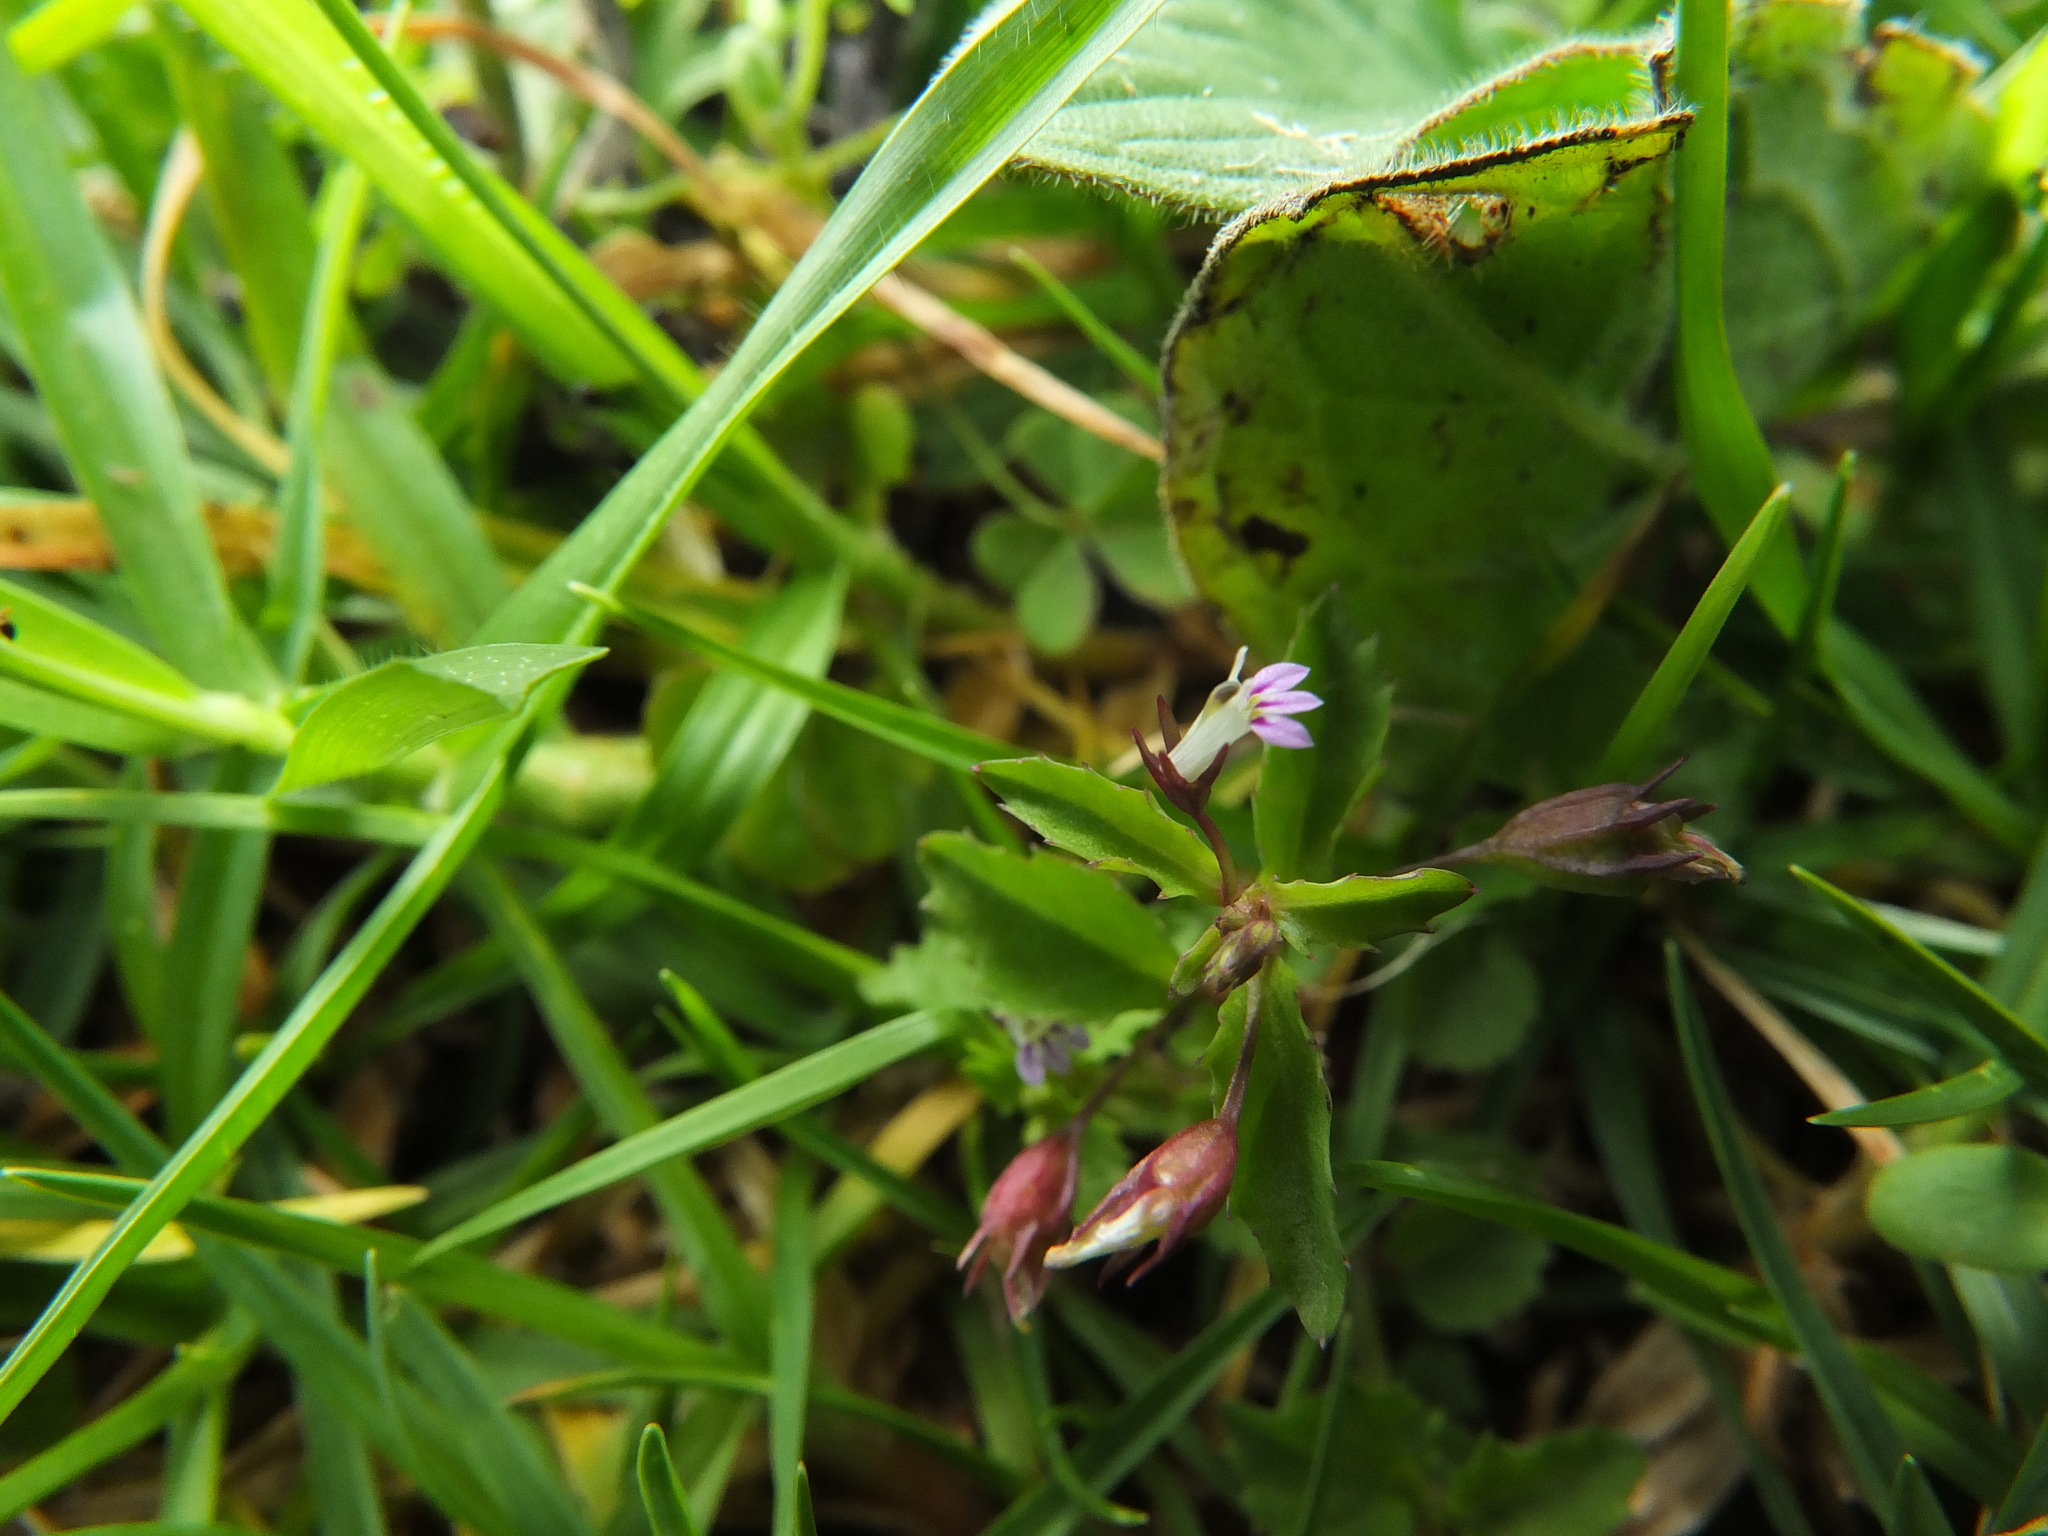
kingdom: Plantae
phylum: Tracheophyta
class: Magnoliopsida
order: Asterales
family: Campanulaceae
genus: Lobelia
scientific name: Lobelia nummularia
